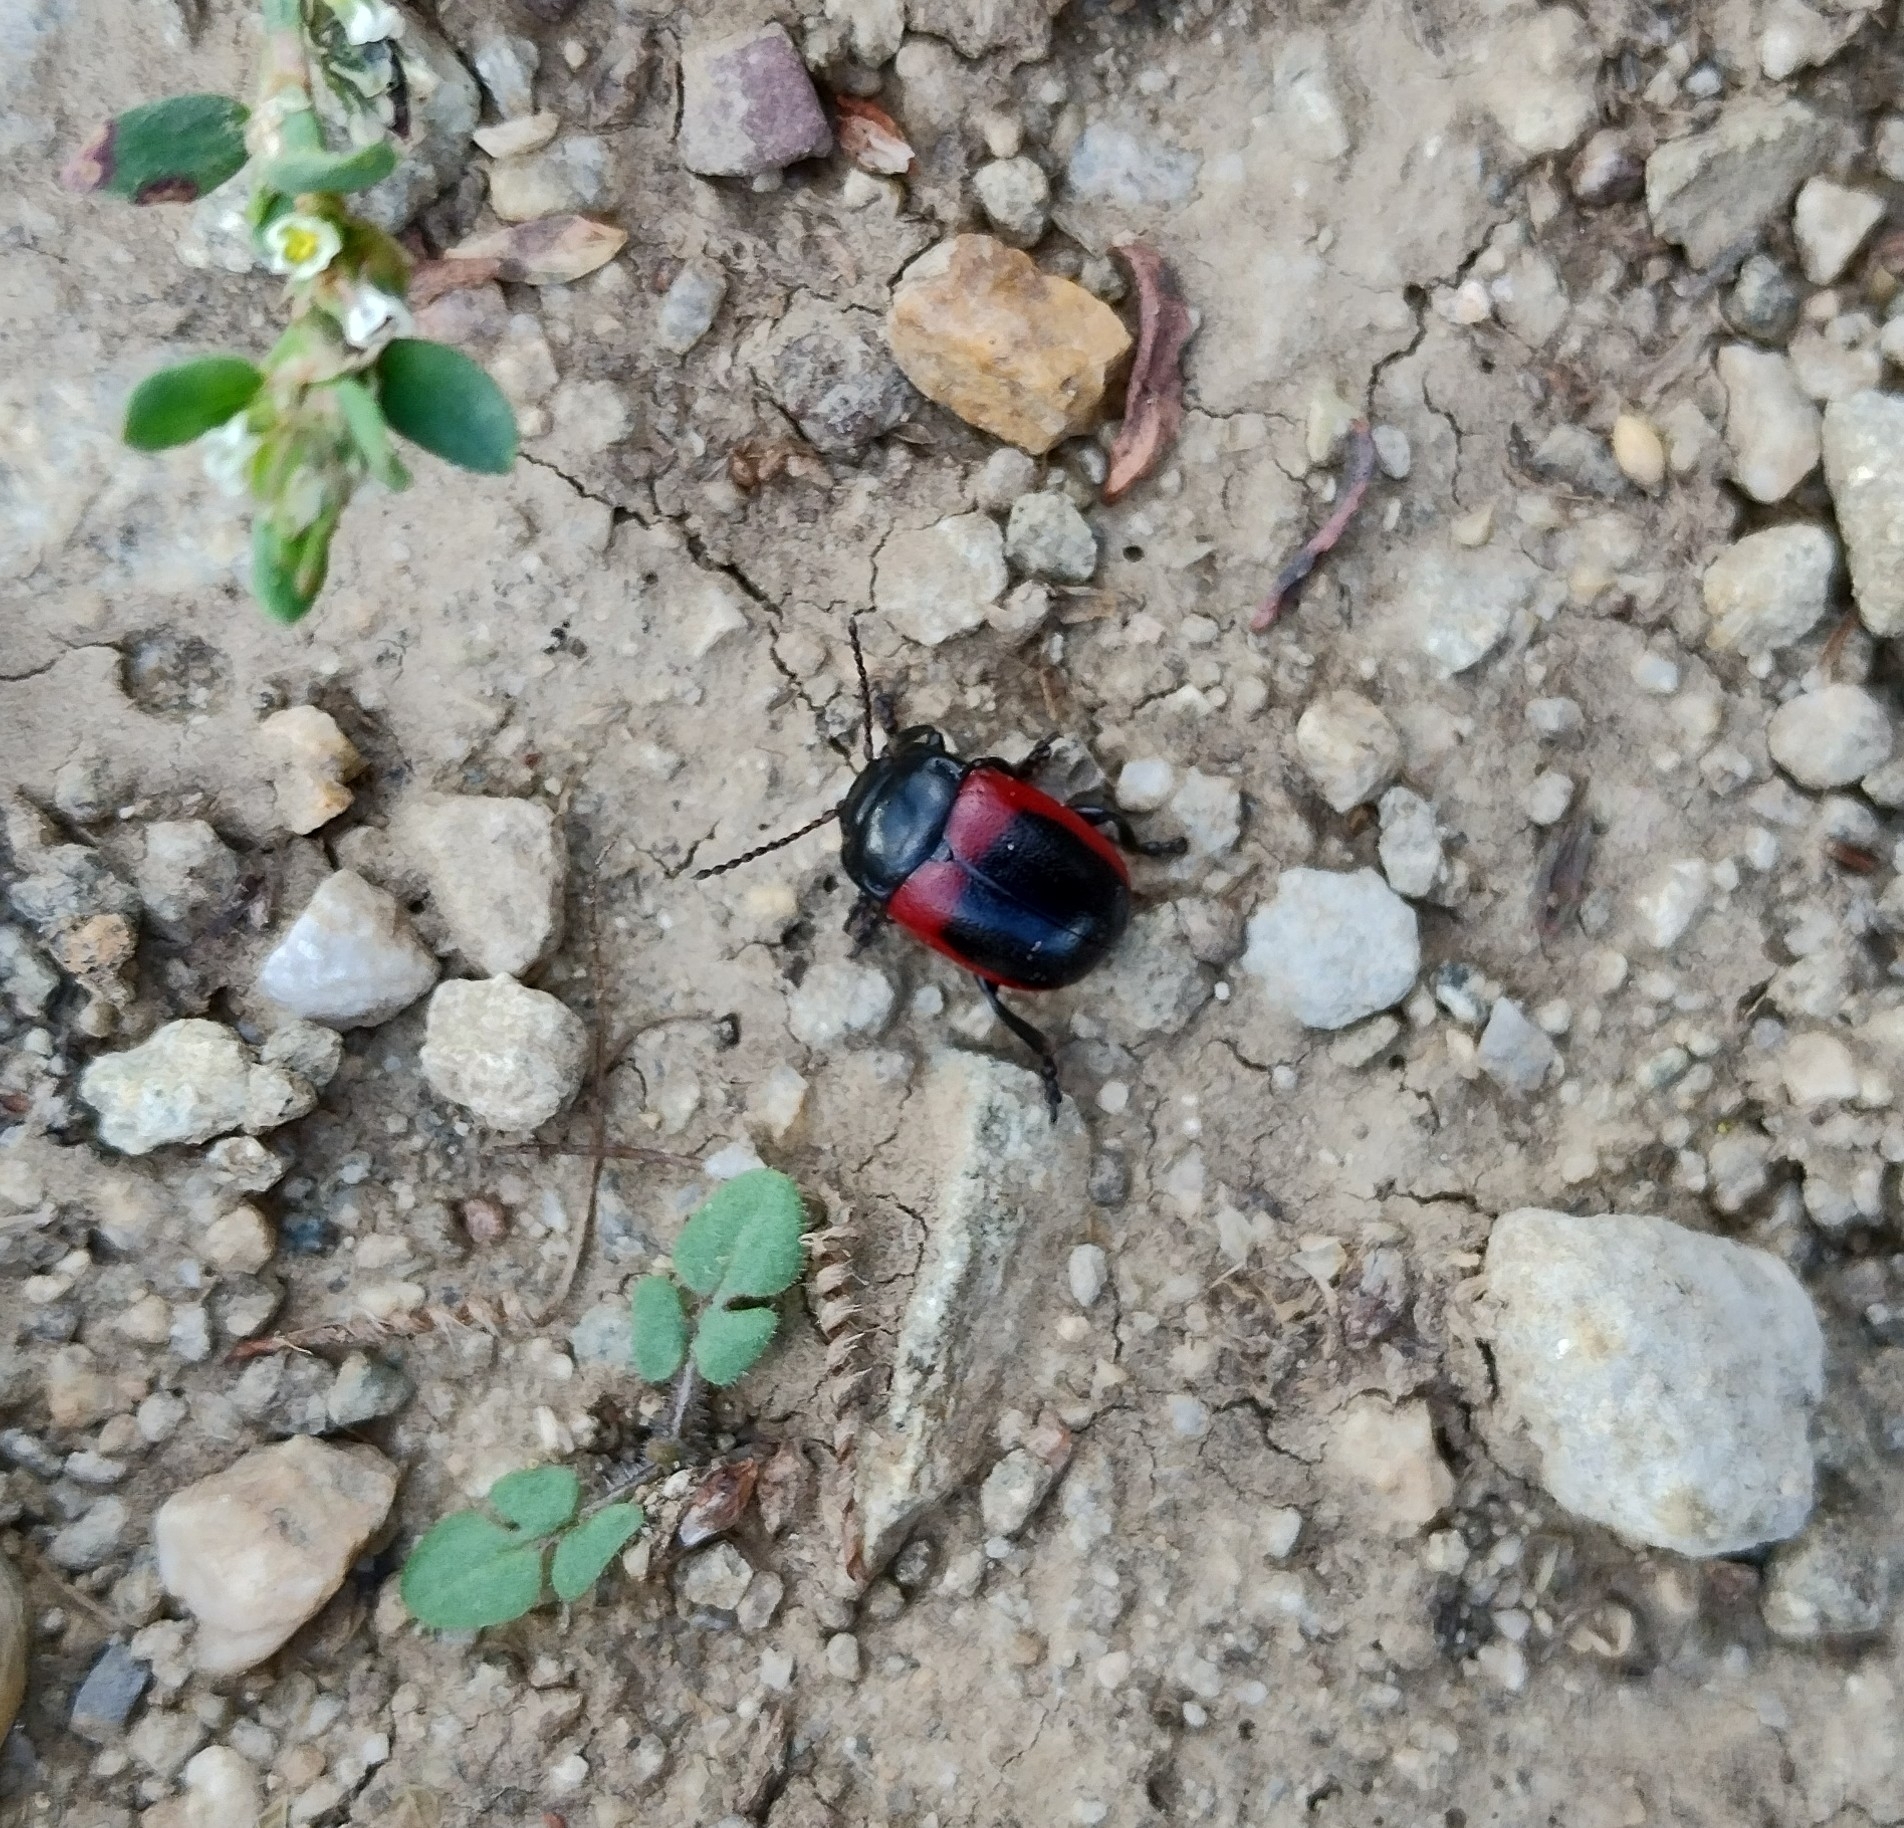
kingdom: Animalia
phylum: Arthropoda
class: Insecta
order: Coleoptera
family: Chrysomelidae
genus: Chrysolina
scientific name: Chrysolina limbata
